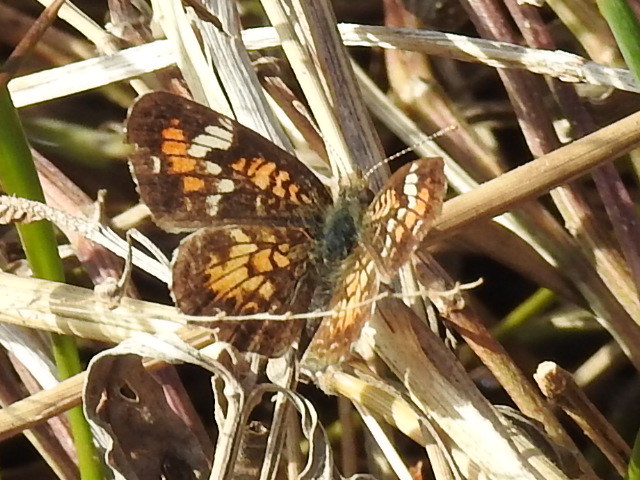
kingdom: Animalia
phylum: Arthropoda
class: Insecta
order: Lepidoptera
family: Nymphalidae
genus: Phyciodes
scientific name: Phyciodes phaon
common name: Phaon crescent
